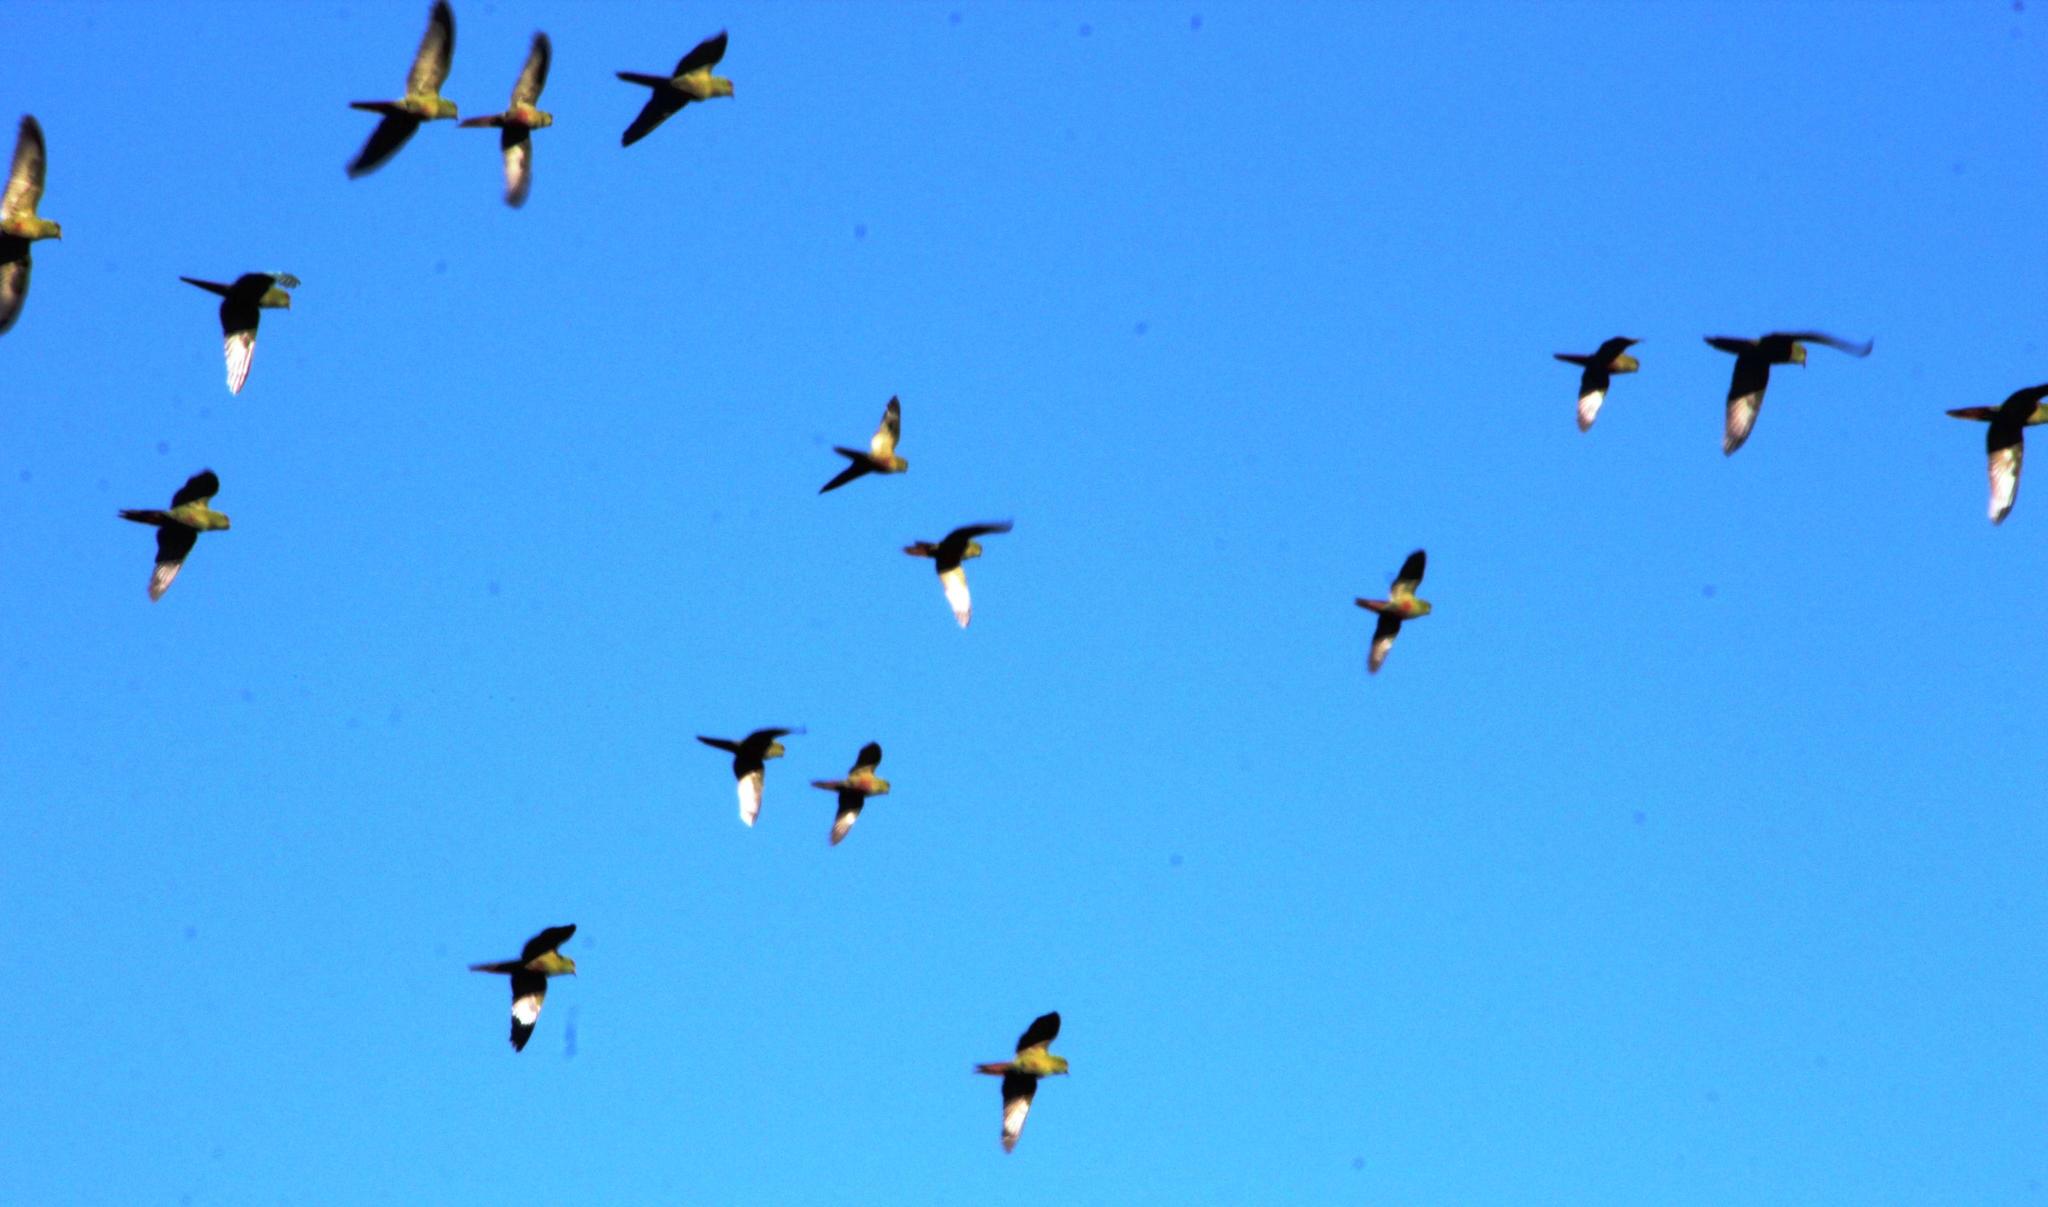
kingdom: Animalia
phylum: Chordata
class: Aves
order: Psittaciformes
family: Psittacidae
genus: Enicognathus
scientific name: Enicognathus ferrugineus
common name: Austral parakeet
